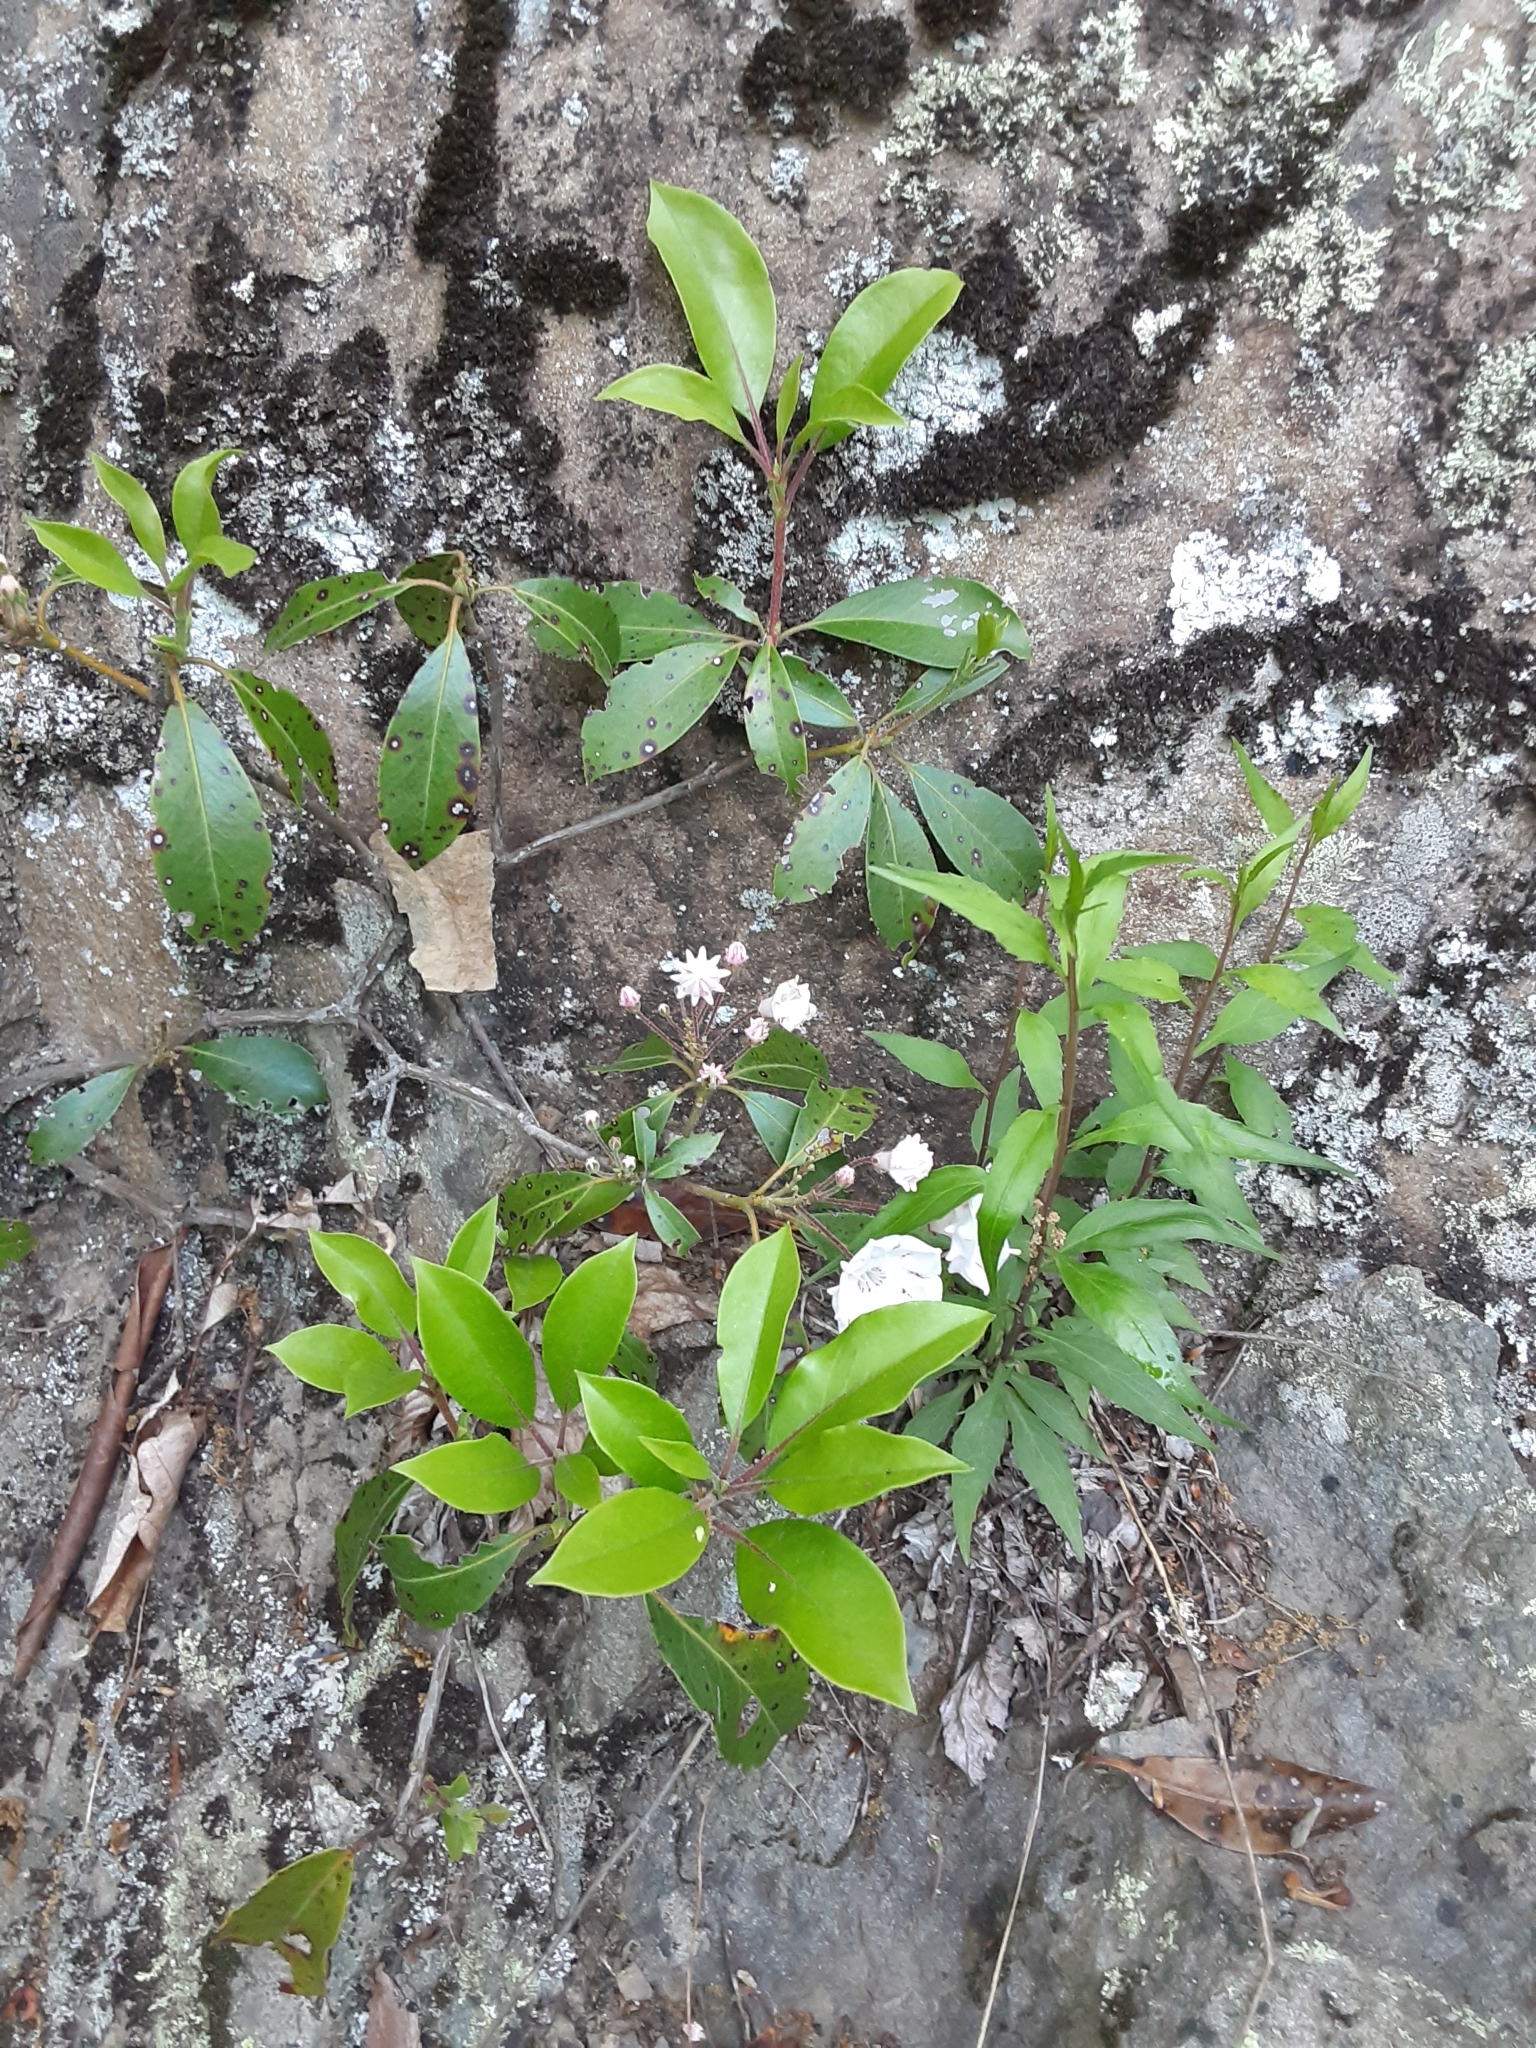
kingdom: Plantae
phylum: Tracheophyta
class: Magnoliopsida
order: Ericales
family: Ericaceae
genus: Kalmia
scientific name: Kalmia latifolia
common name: Mountain-laurel
